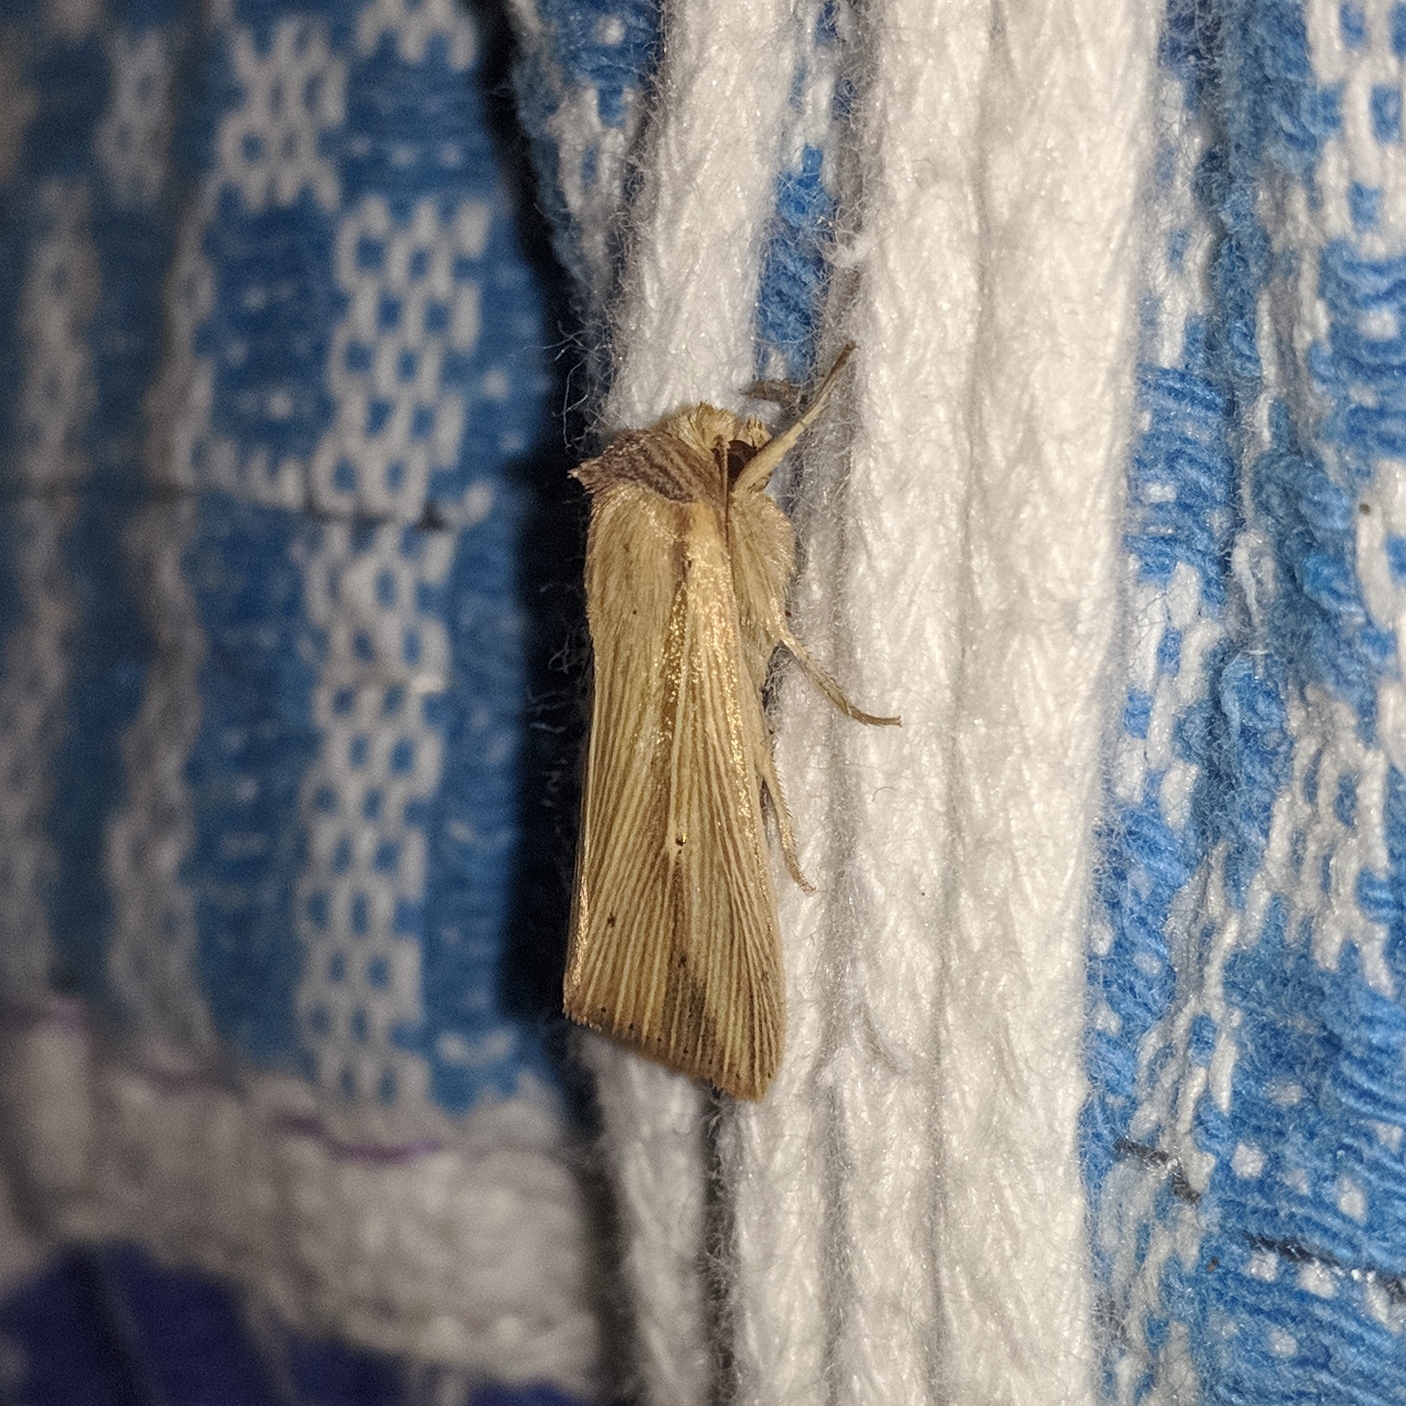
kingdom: Animalia
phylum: Arthropoda
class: Insecta
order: Lepidoptera
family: Noctuidae
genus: Leucania
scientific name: Leucania humidicola
